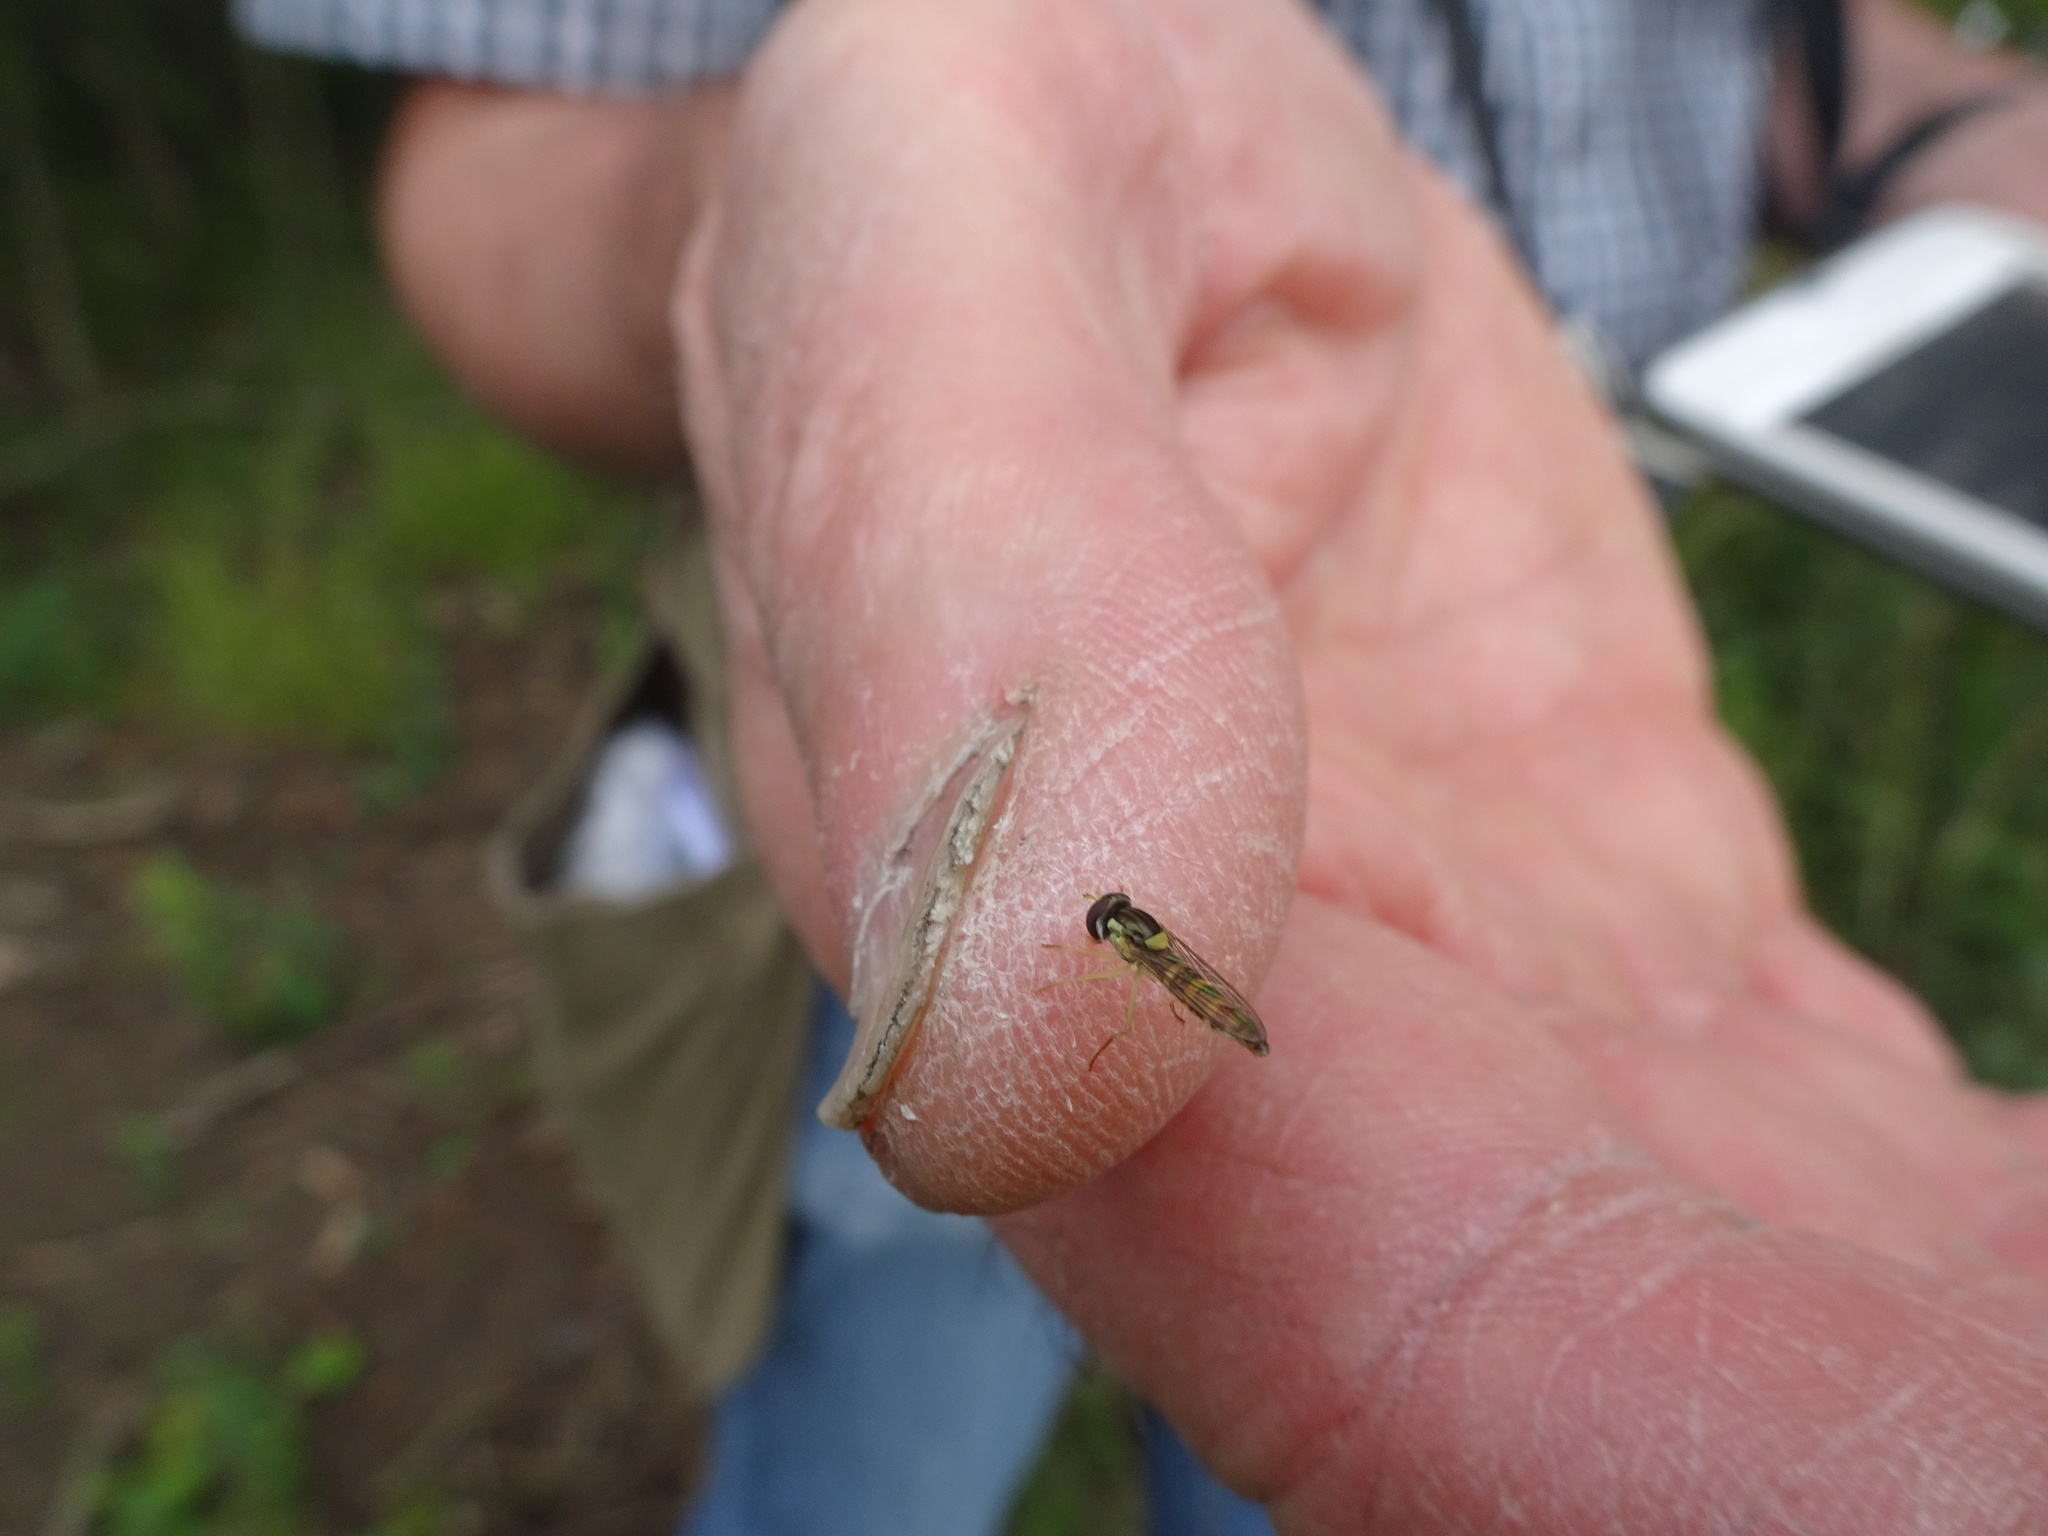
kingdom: Animalia
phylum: Arthropoda
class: Insecta
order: Diptera
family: Syrphidae
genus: Sphaerophoria
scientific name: Sphaerophoria
